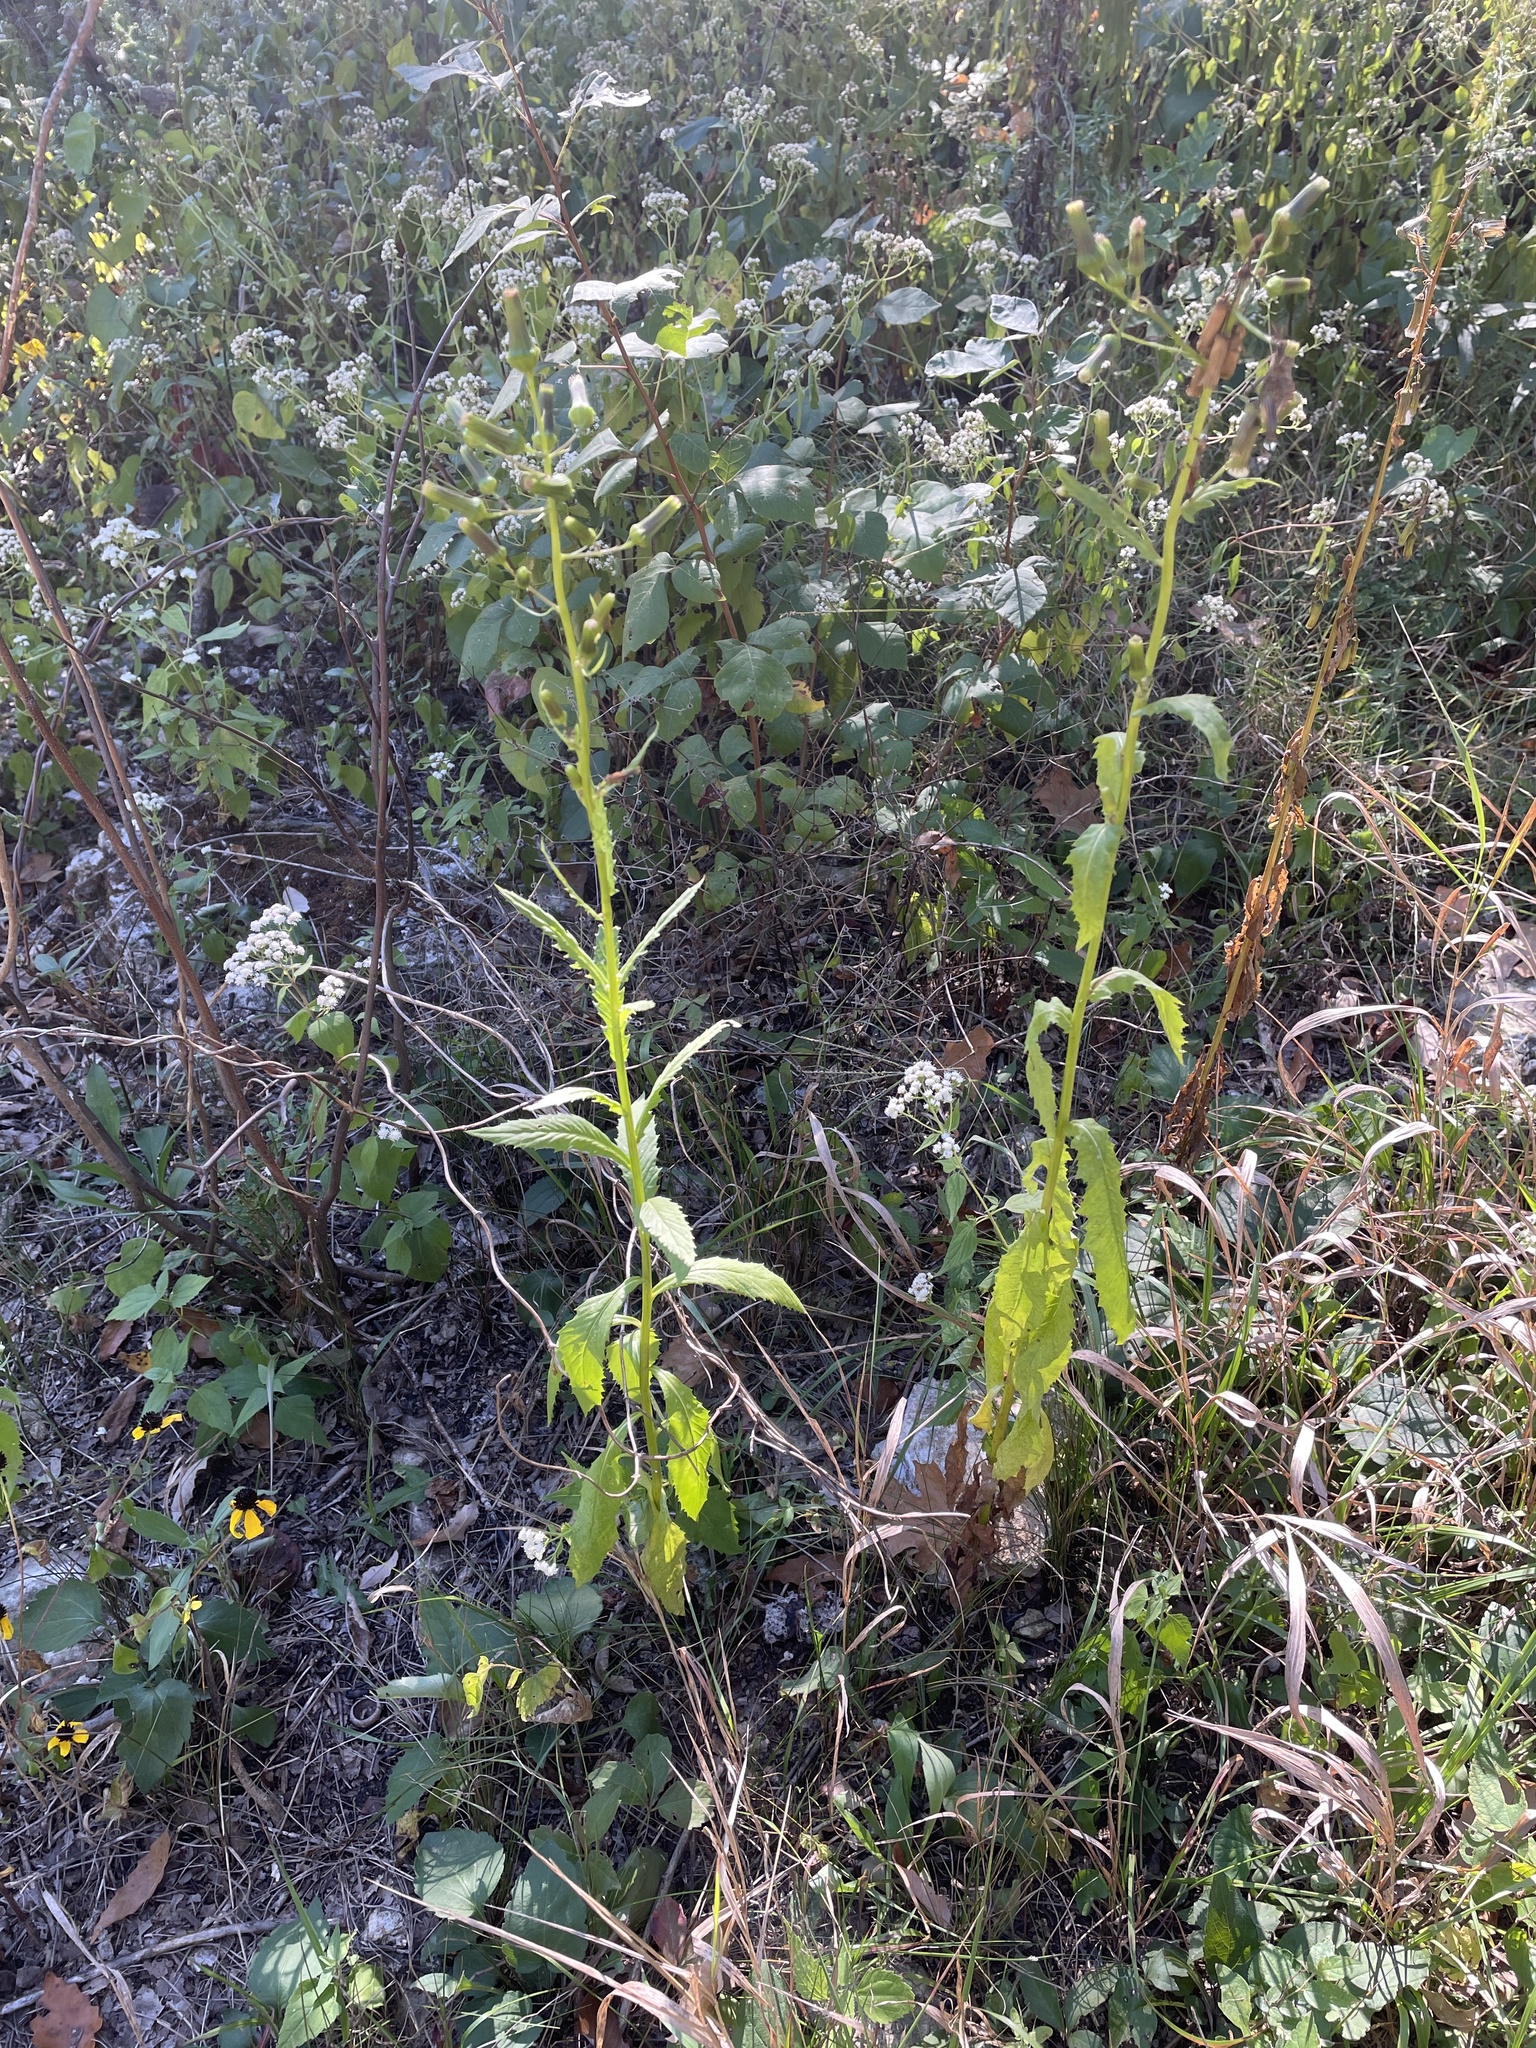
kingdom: Plantae
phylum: Tracheophyta
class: Magnoliopsida
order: Asterales
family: Asteraceae
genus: Erechtites
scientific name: Erechtites hieraciifolius
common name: American burnweed
